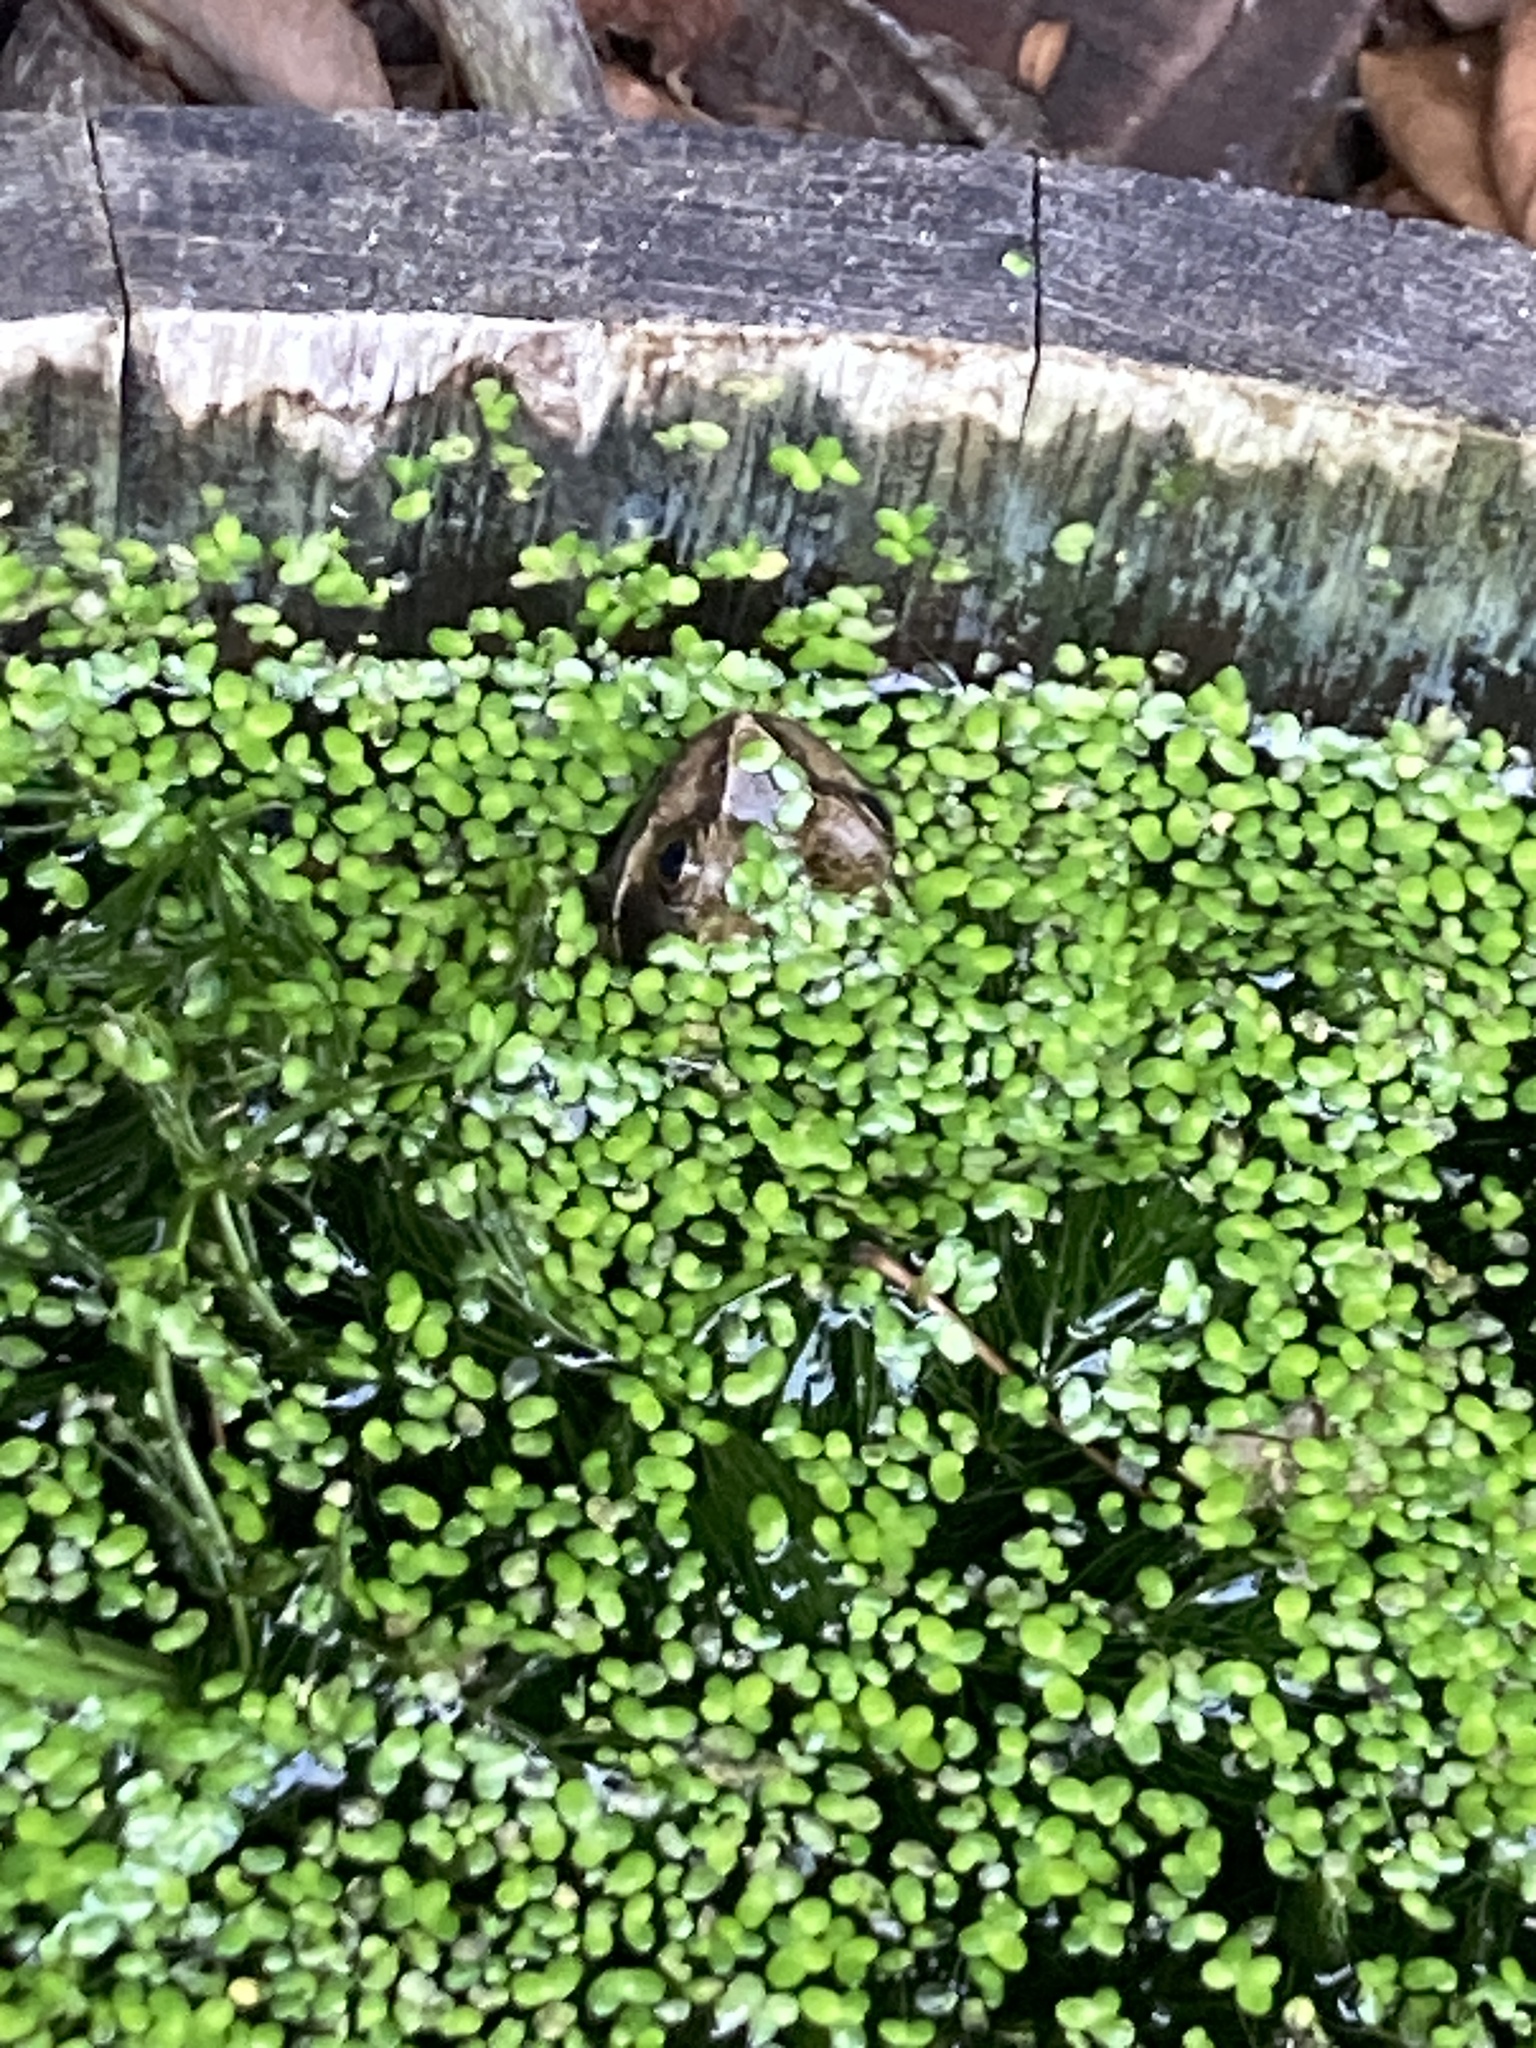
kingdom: Animalia
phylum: Chordata
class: Amphibia
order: Anura
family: Ranidae
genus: Rana
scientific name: Rana temporaria
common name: Common frog
